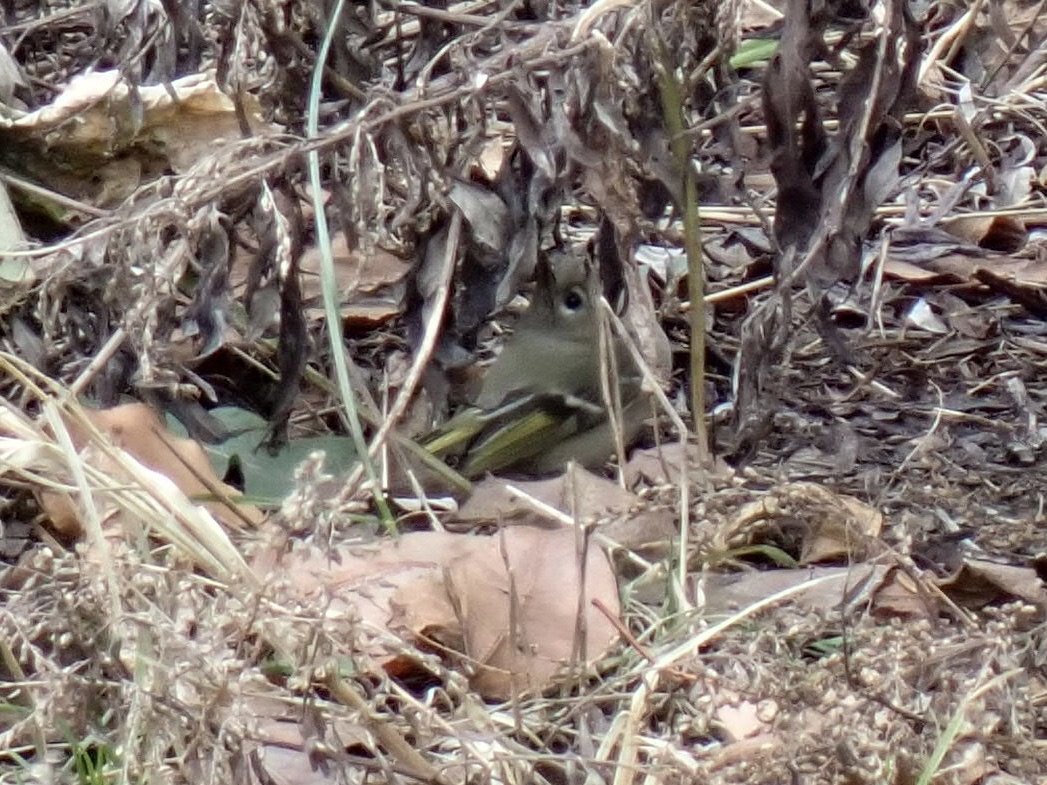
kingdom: Animalia
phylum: Chordata
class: Aves
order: Passeriformes
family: Regulidae
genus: Regulus
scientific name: Regulus calendula
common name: Ruby-crowned kinglet
